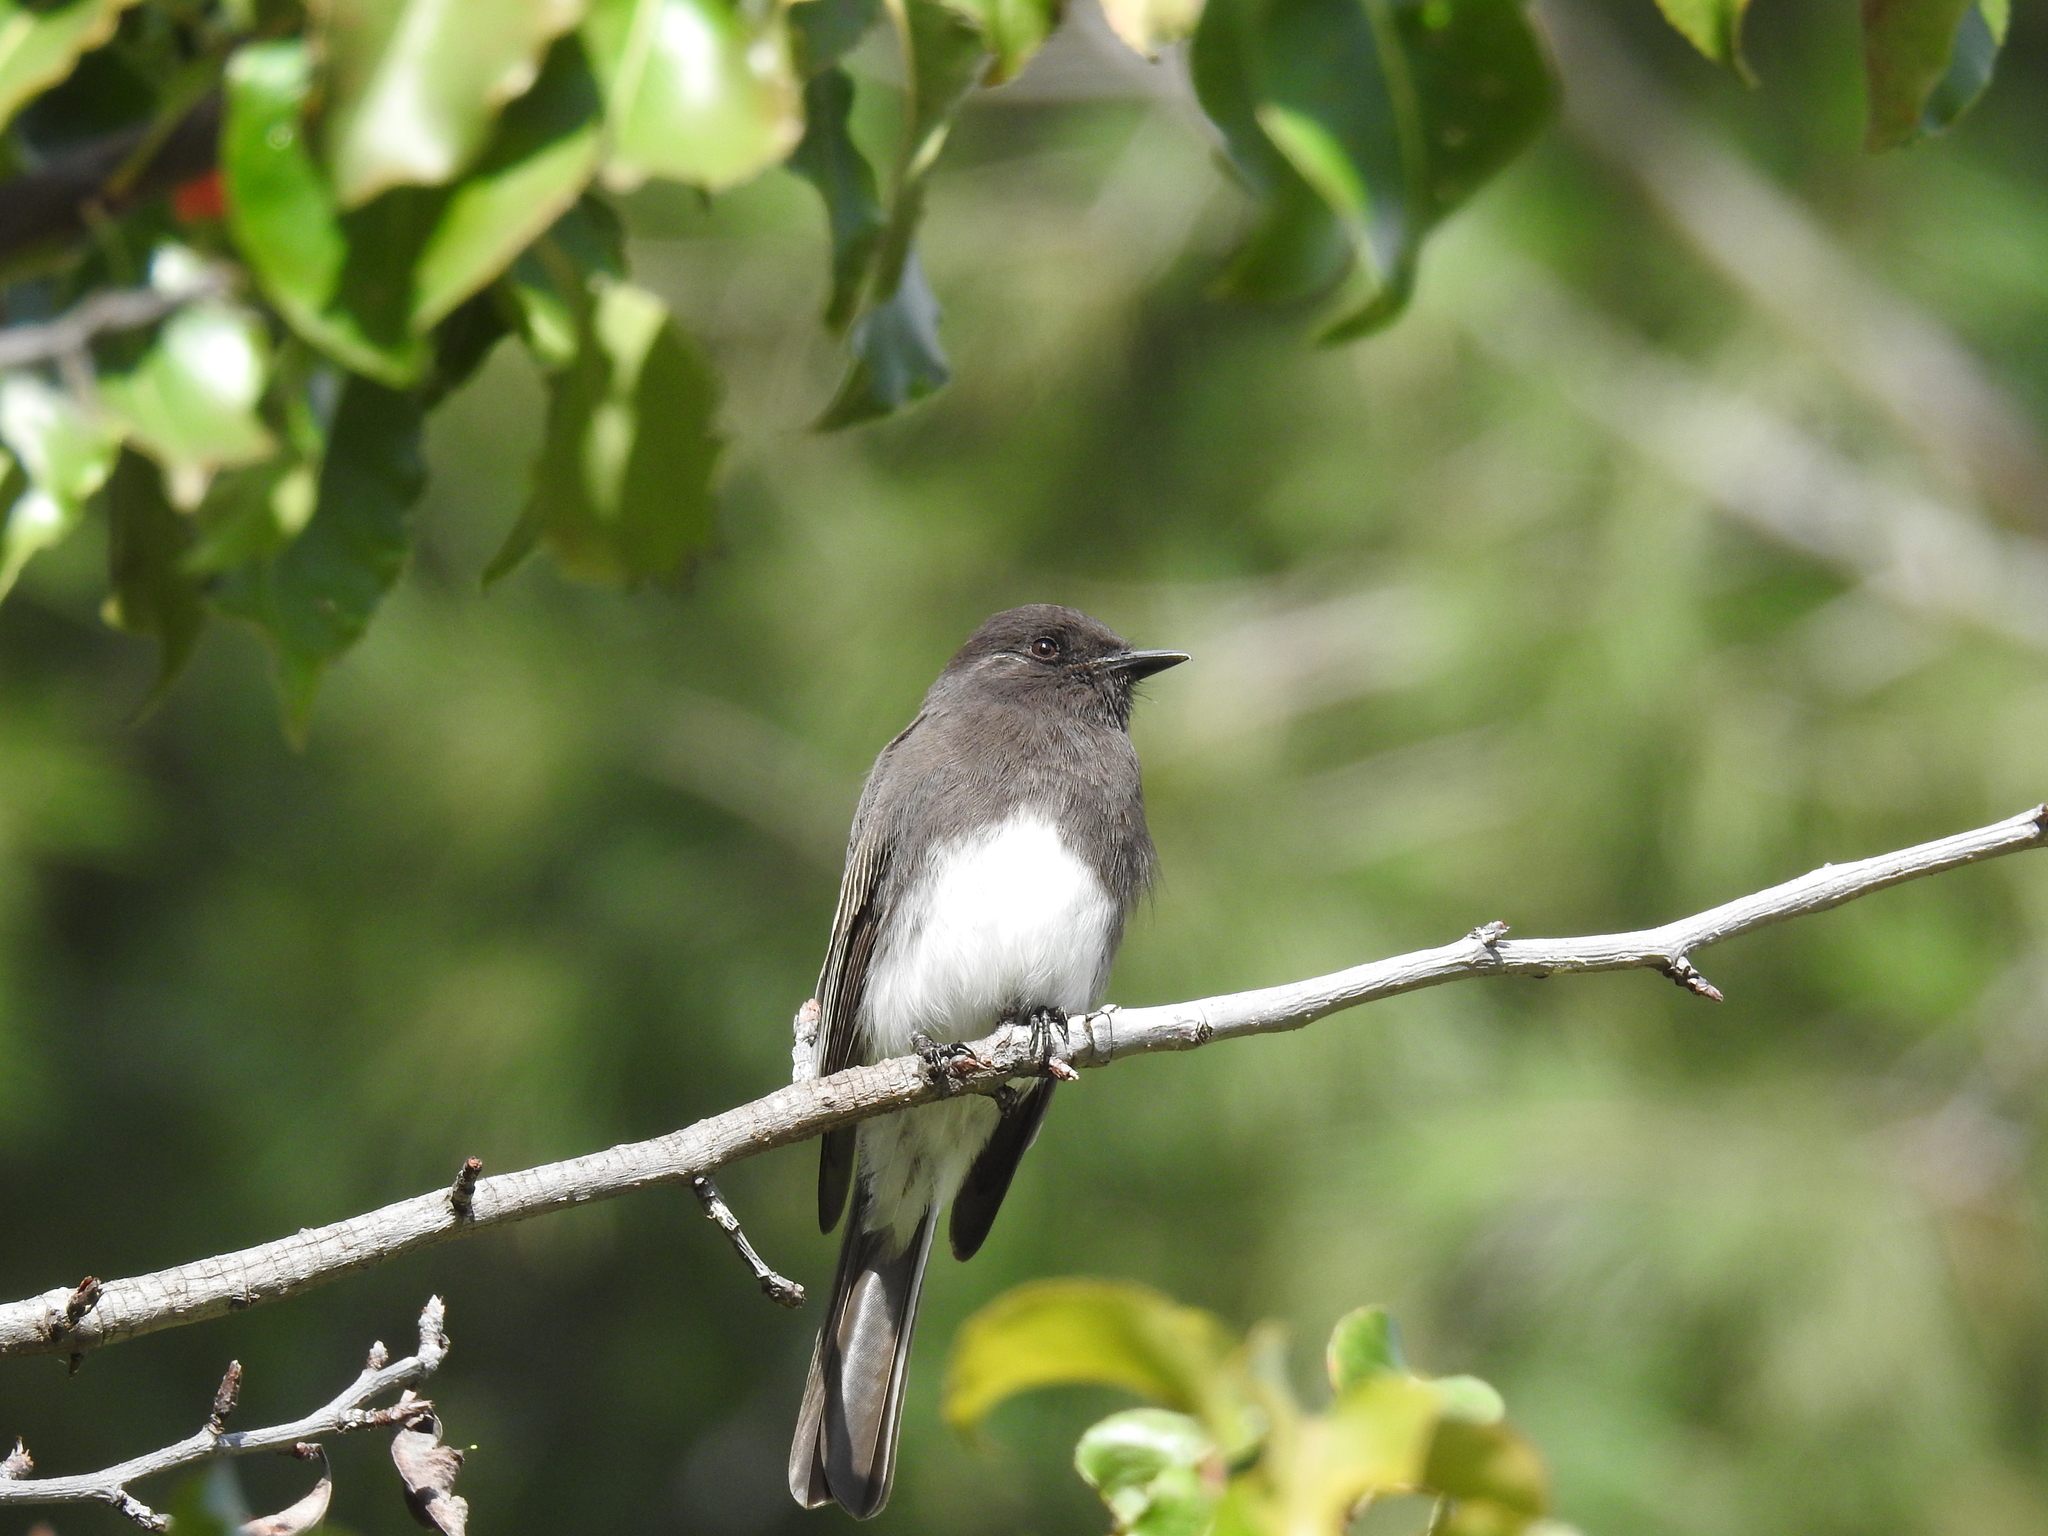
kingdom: Animalia
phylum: Chordata
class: Aves
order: Passeriformes
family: Tyrannidae
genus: Sayornis
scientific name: Sayornis nigricans
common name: Black phoebe
